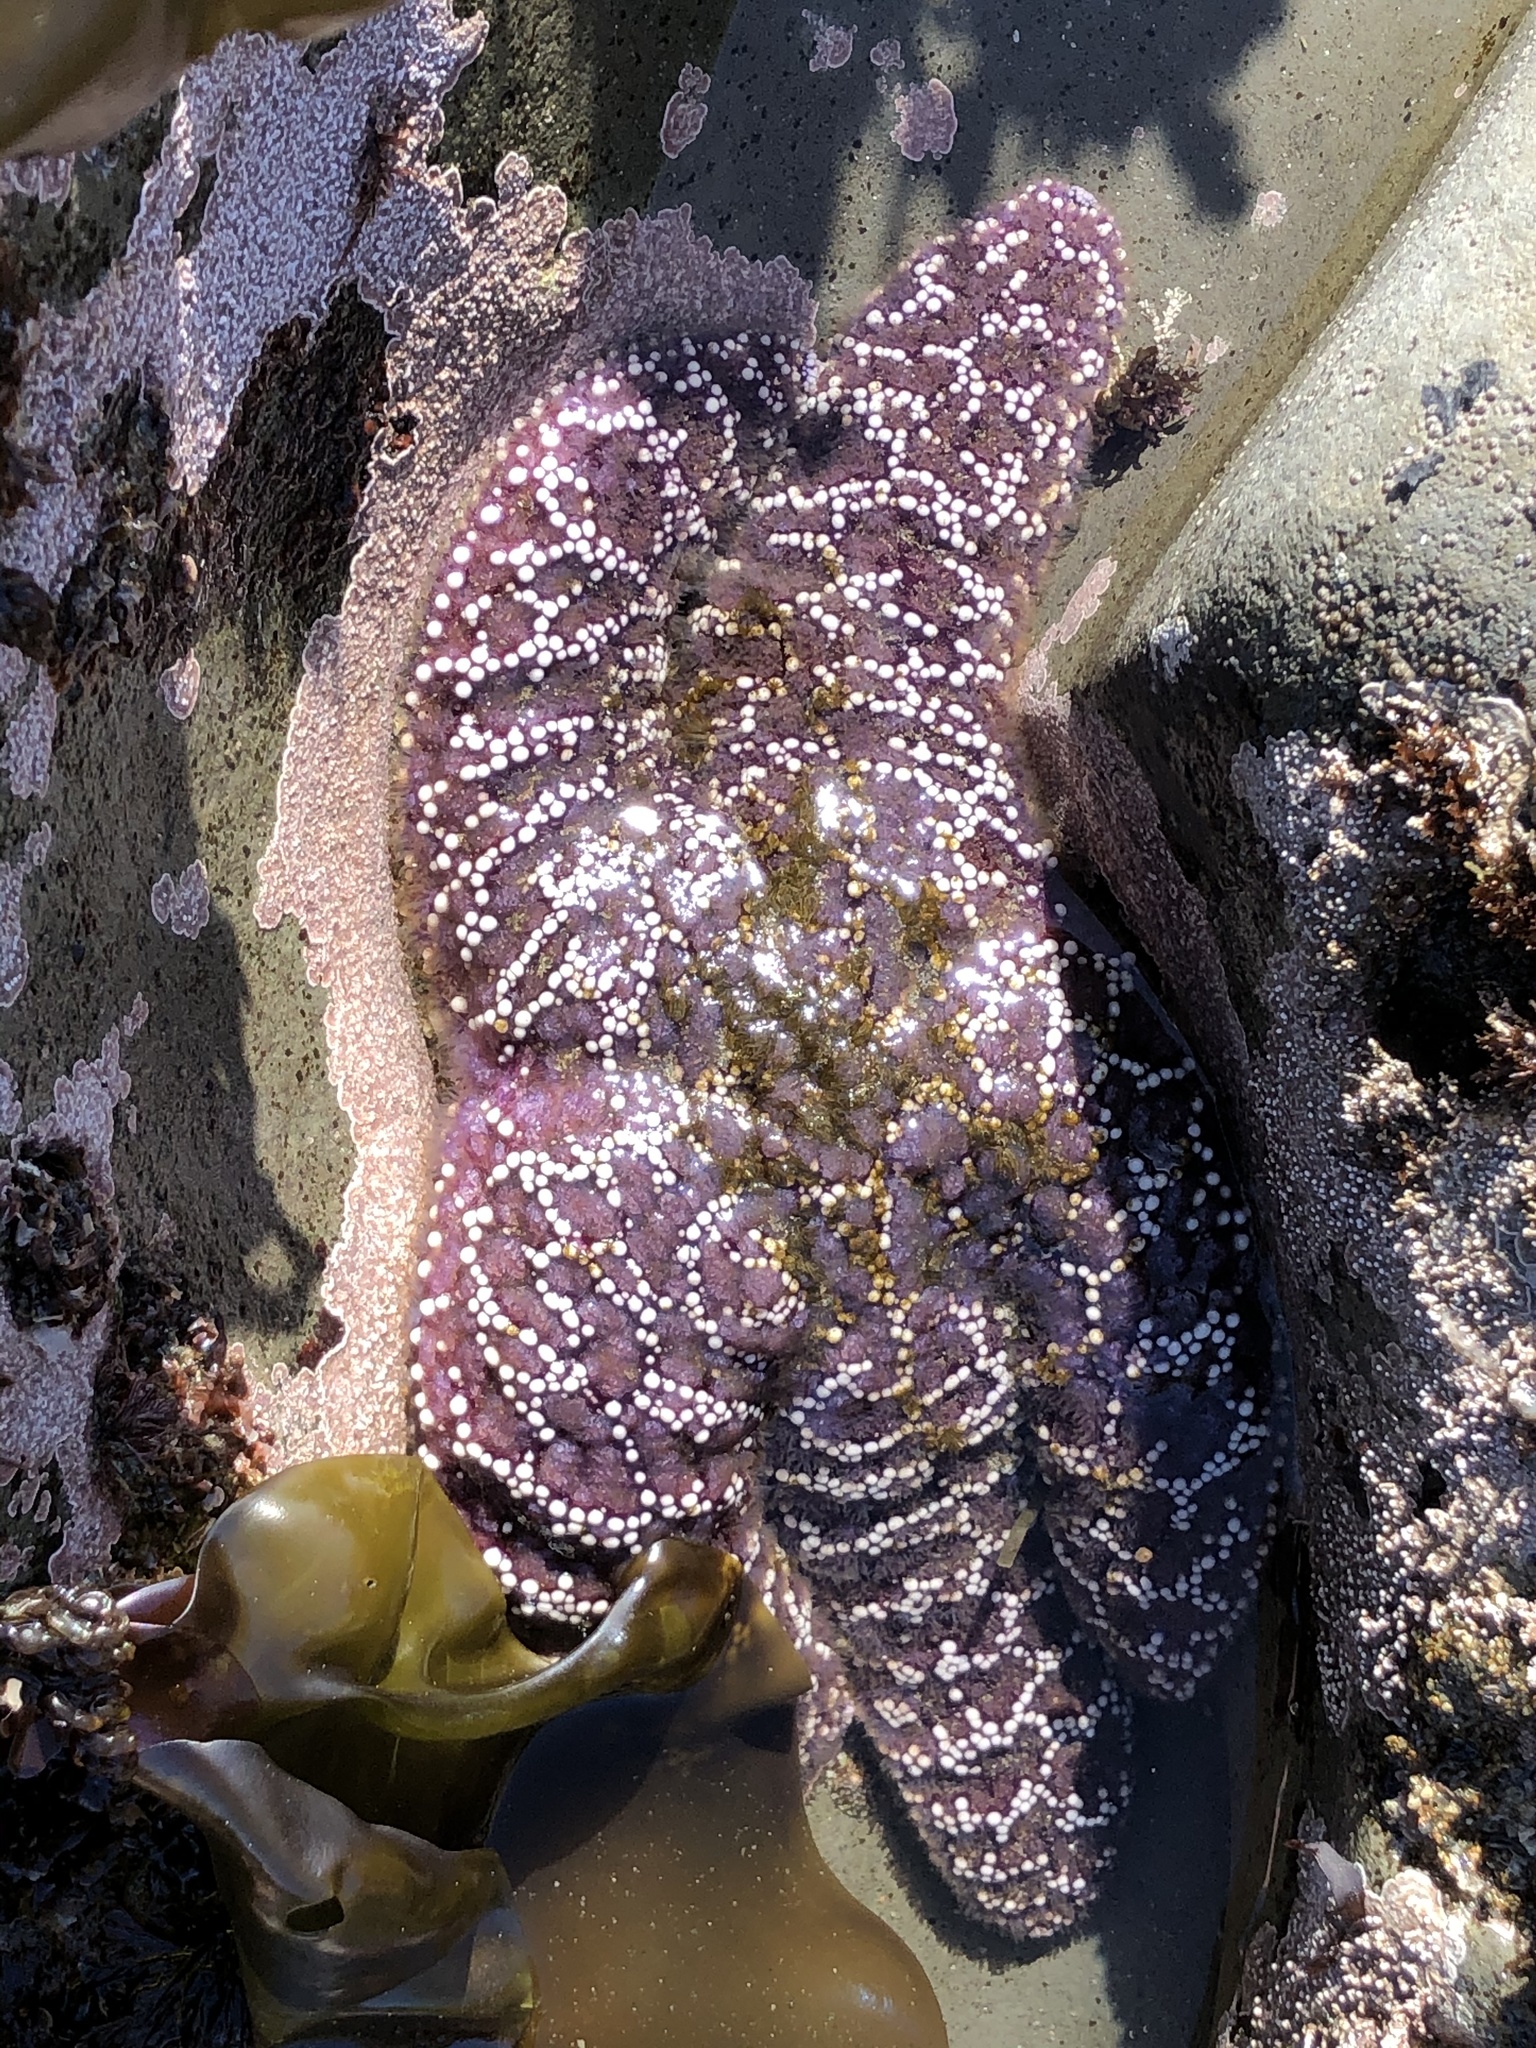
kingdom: Animalia
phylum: Echinodermata
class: Asteroidea
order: Forcipulatida
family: Asteriidae
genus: Pisaster
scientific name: Pisaster ochraceus
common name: Ochre stars
